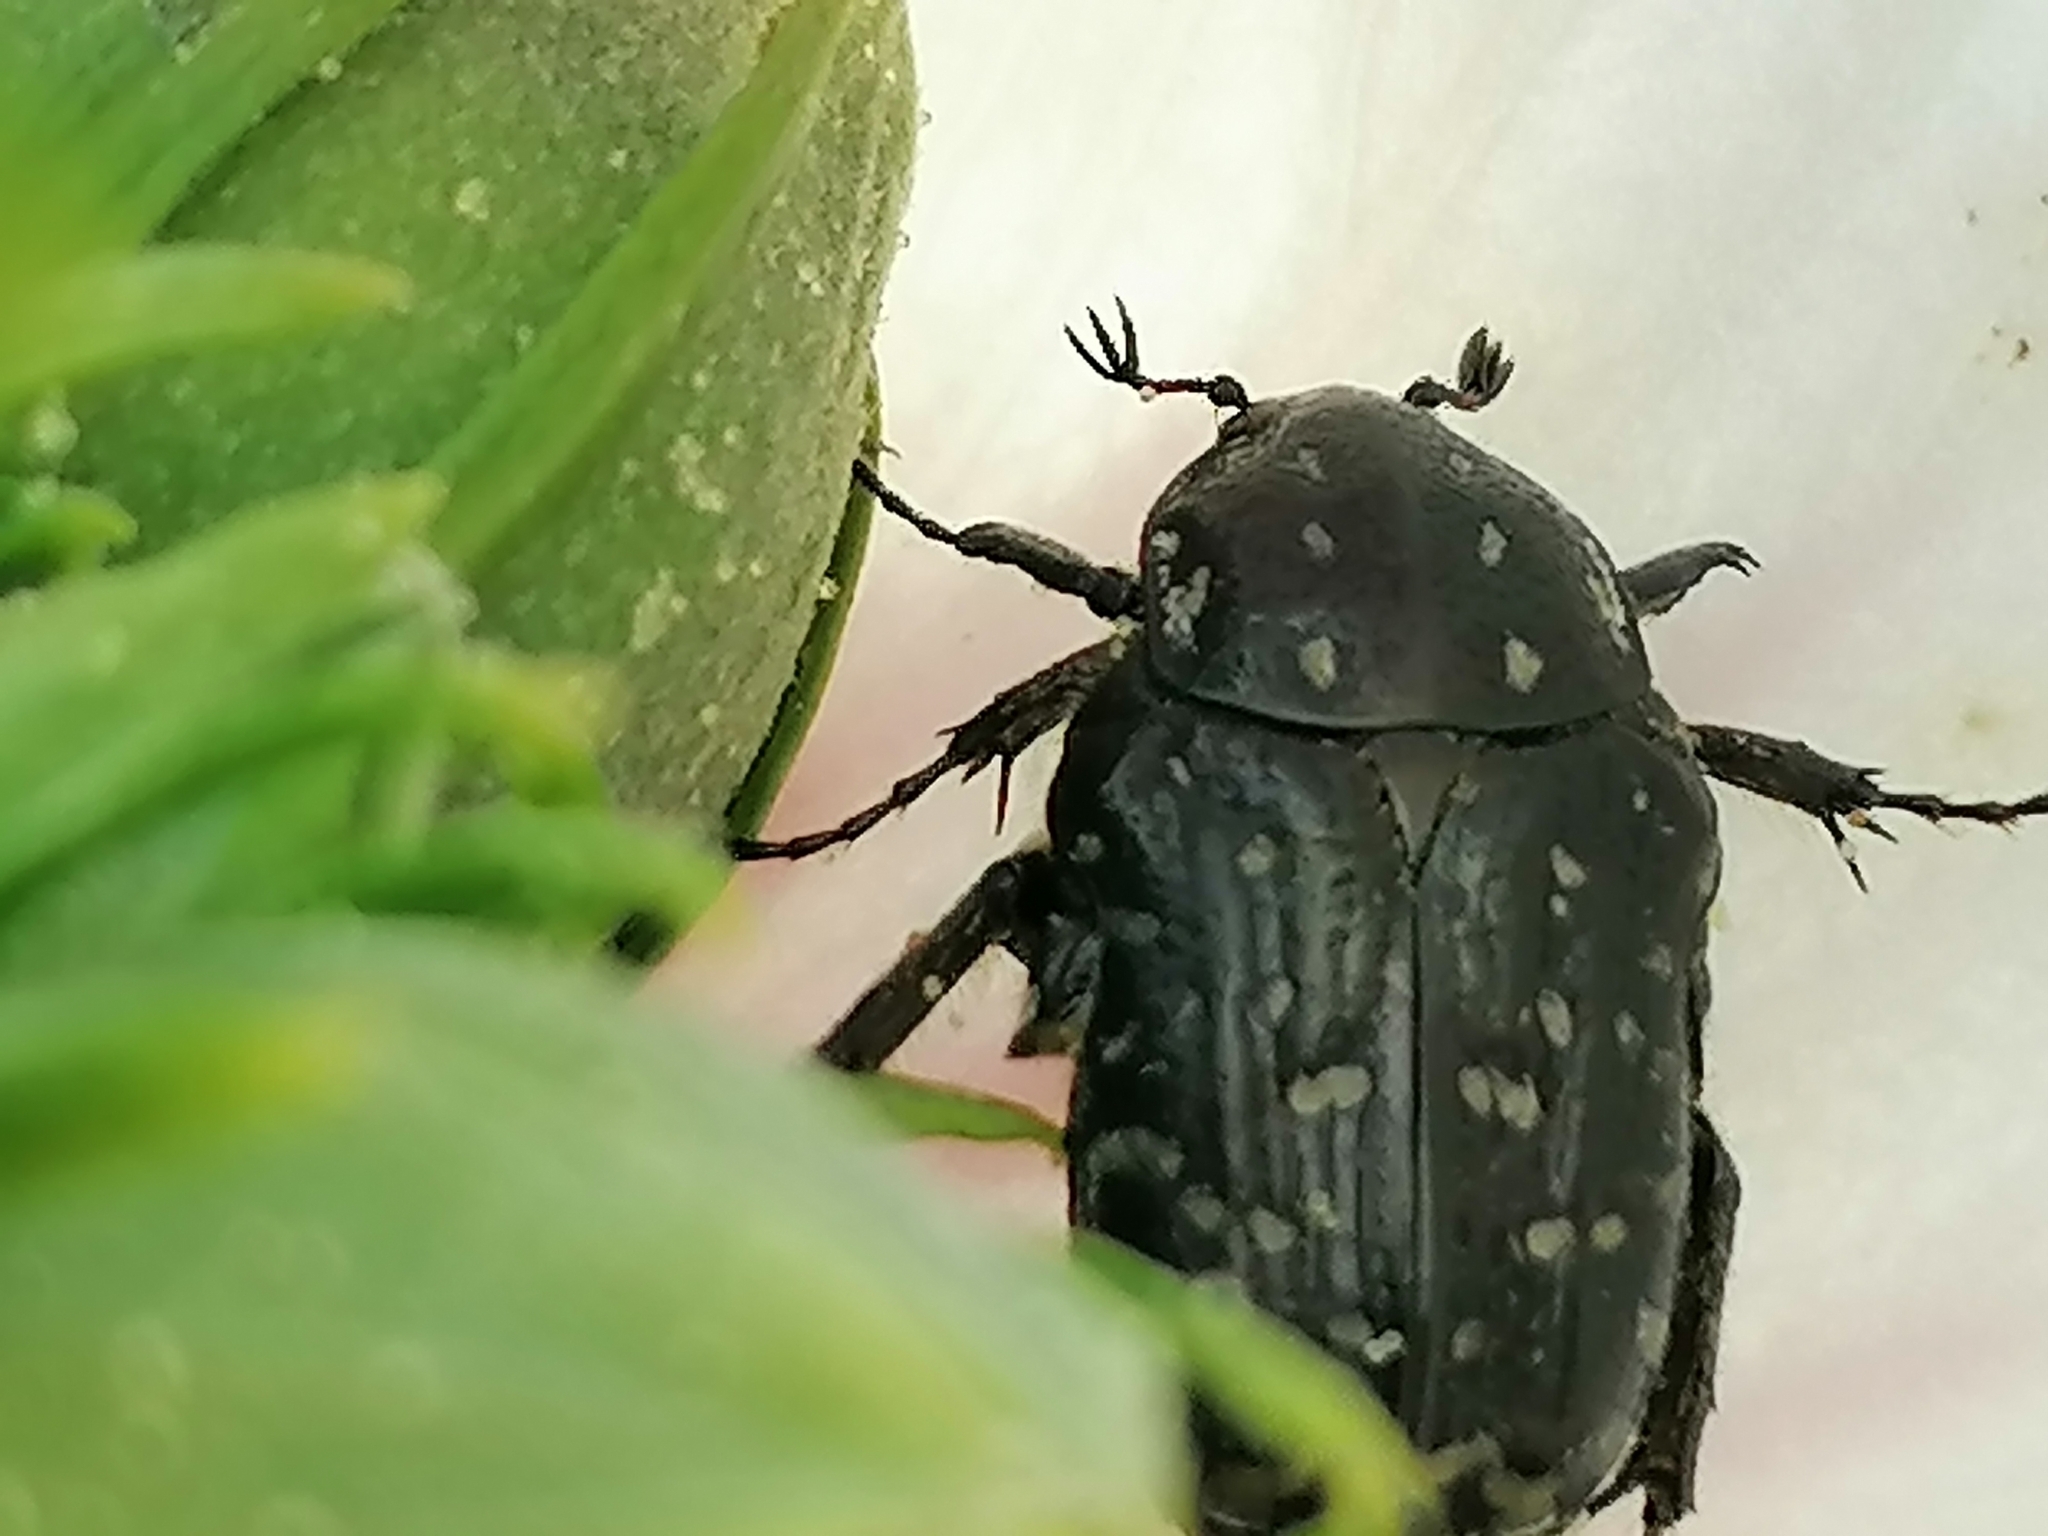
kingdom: Animalia
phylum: Arthropoda
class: Insecta
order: Coleoptera
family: Scarabaeidae
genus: Oxythyrea
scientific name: Oxythyrea funesta
